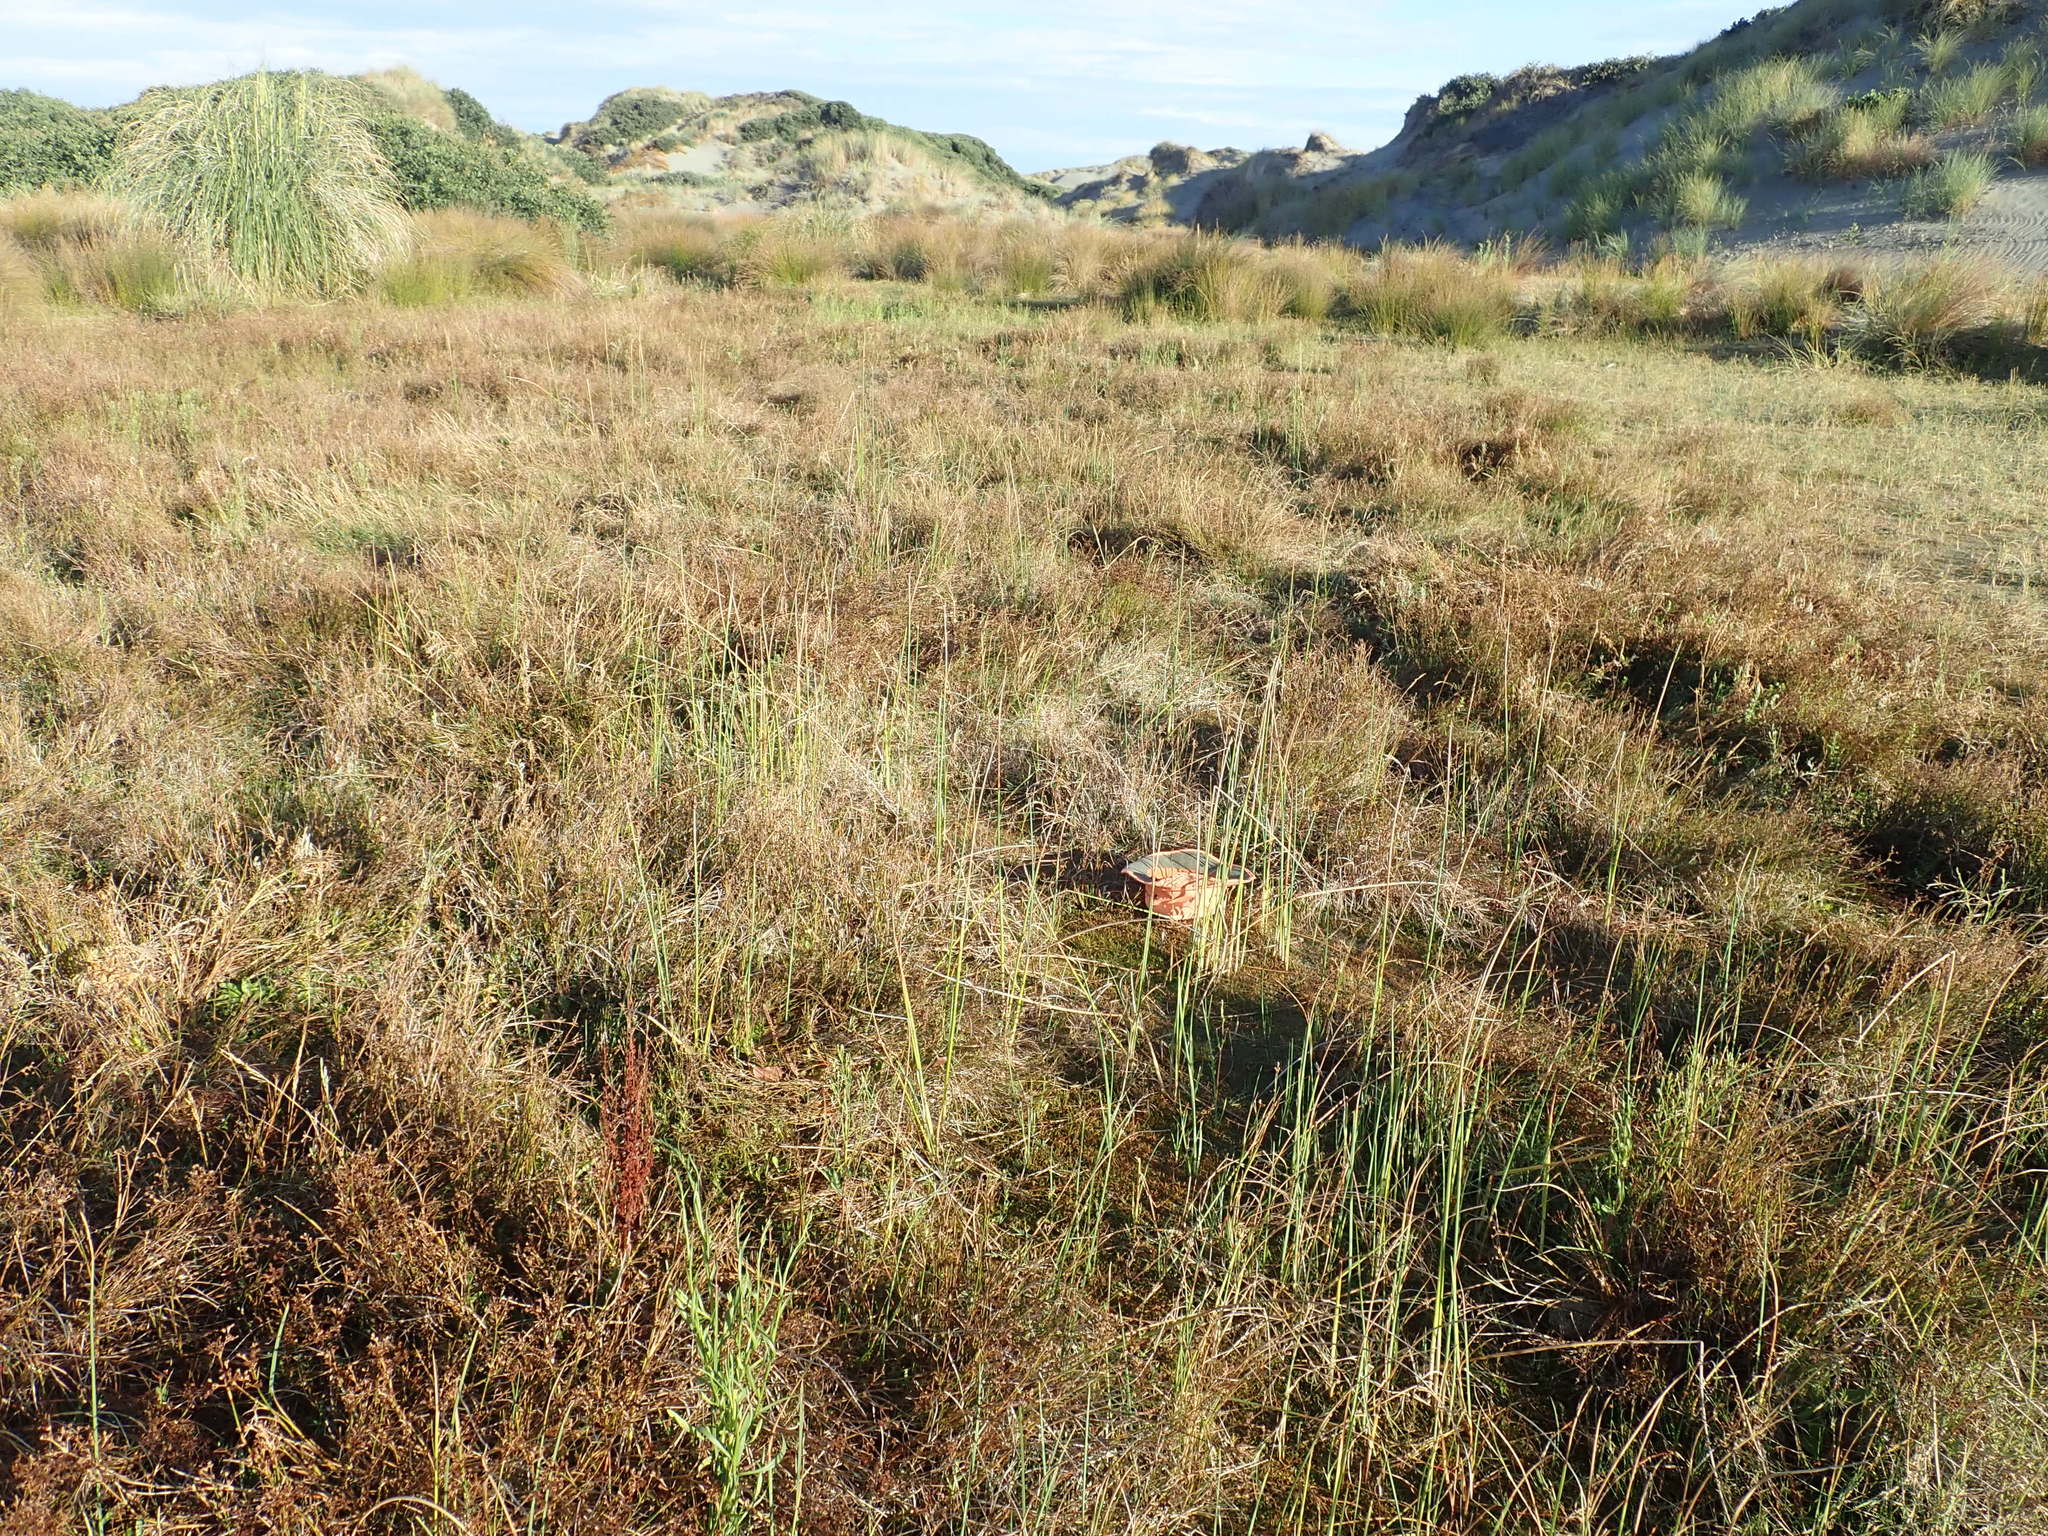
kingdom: Plantae
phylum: Tracheophyta
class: Magnoliopsida
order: Saxifragales
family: Haloragaceae
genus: Myriophyllum
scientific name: Myriophyllum votschii
